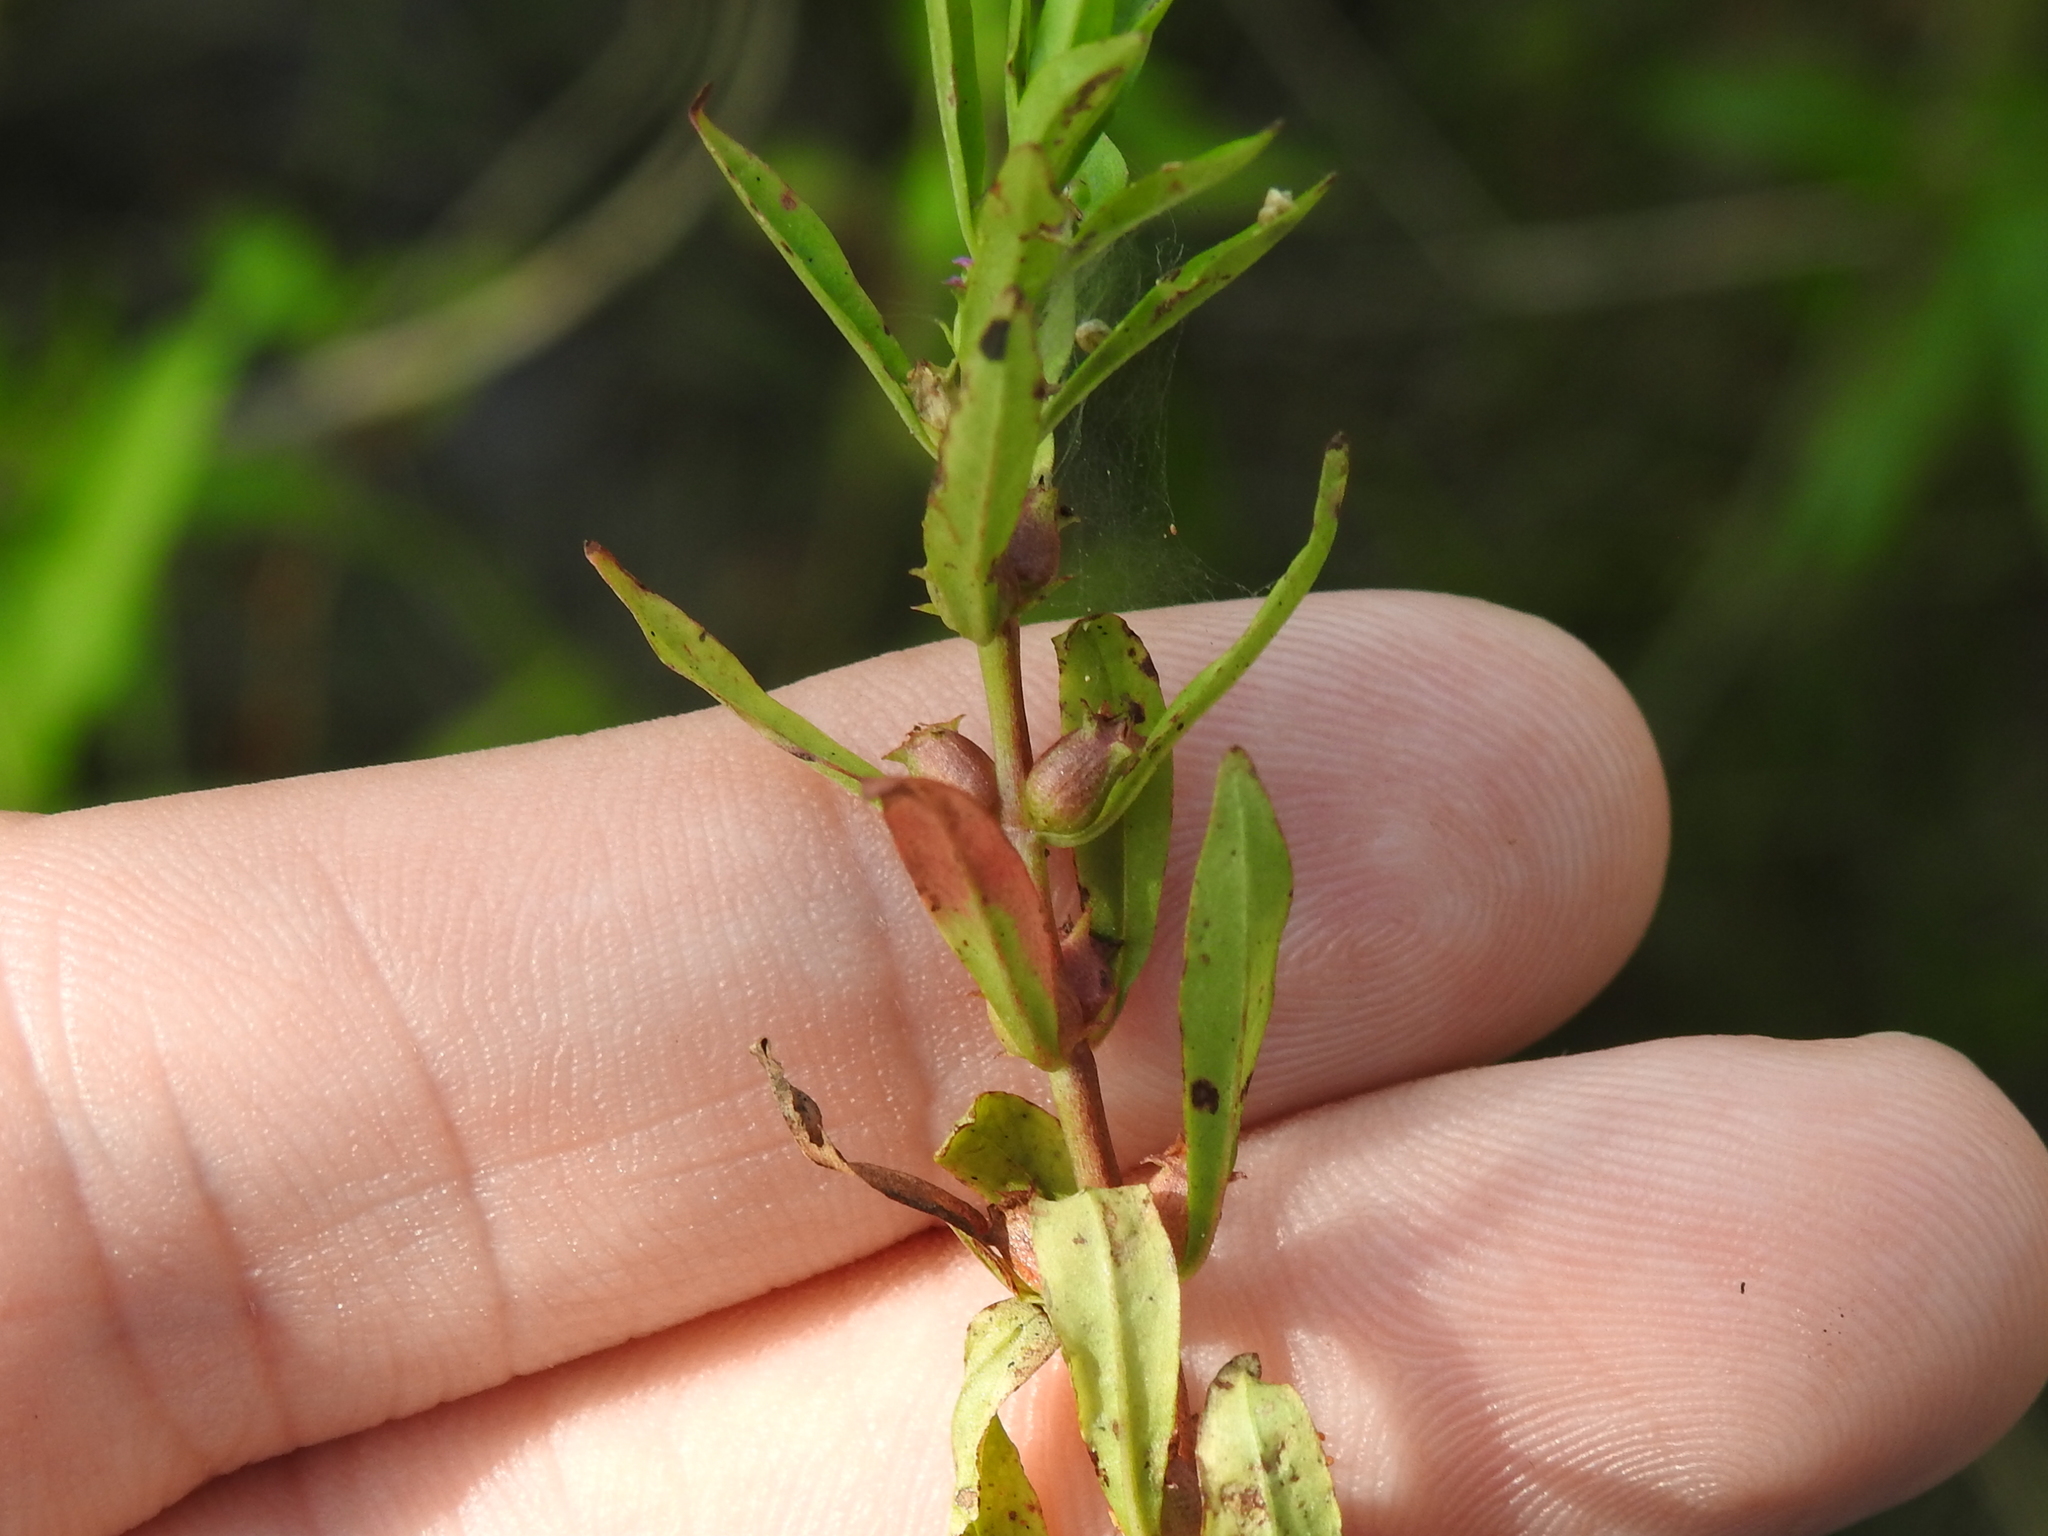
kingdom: Plantae
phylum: Tracheophyta
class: Magnoliopsida
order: Myrtales
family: Lythraceae
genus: Rotala
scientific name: Rotala ramosior
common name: Lowland rotala
